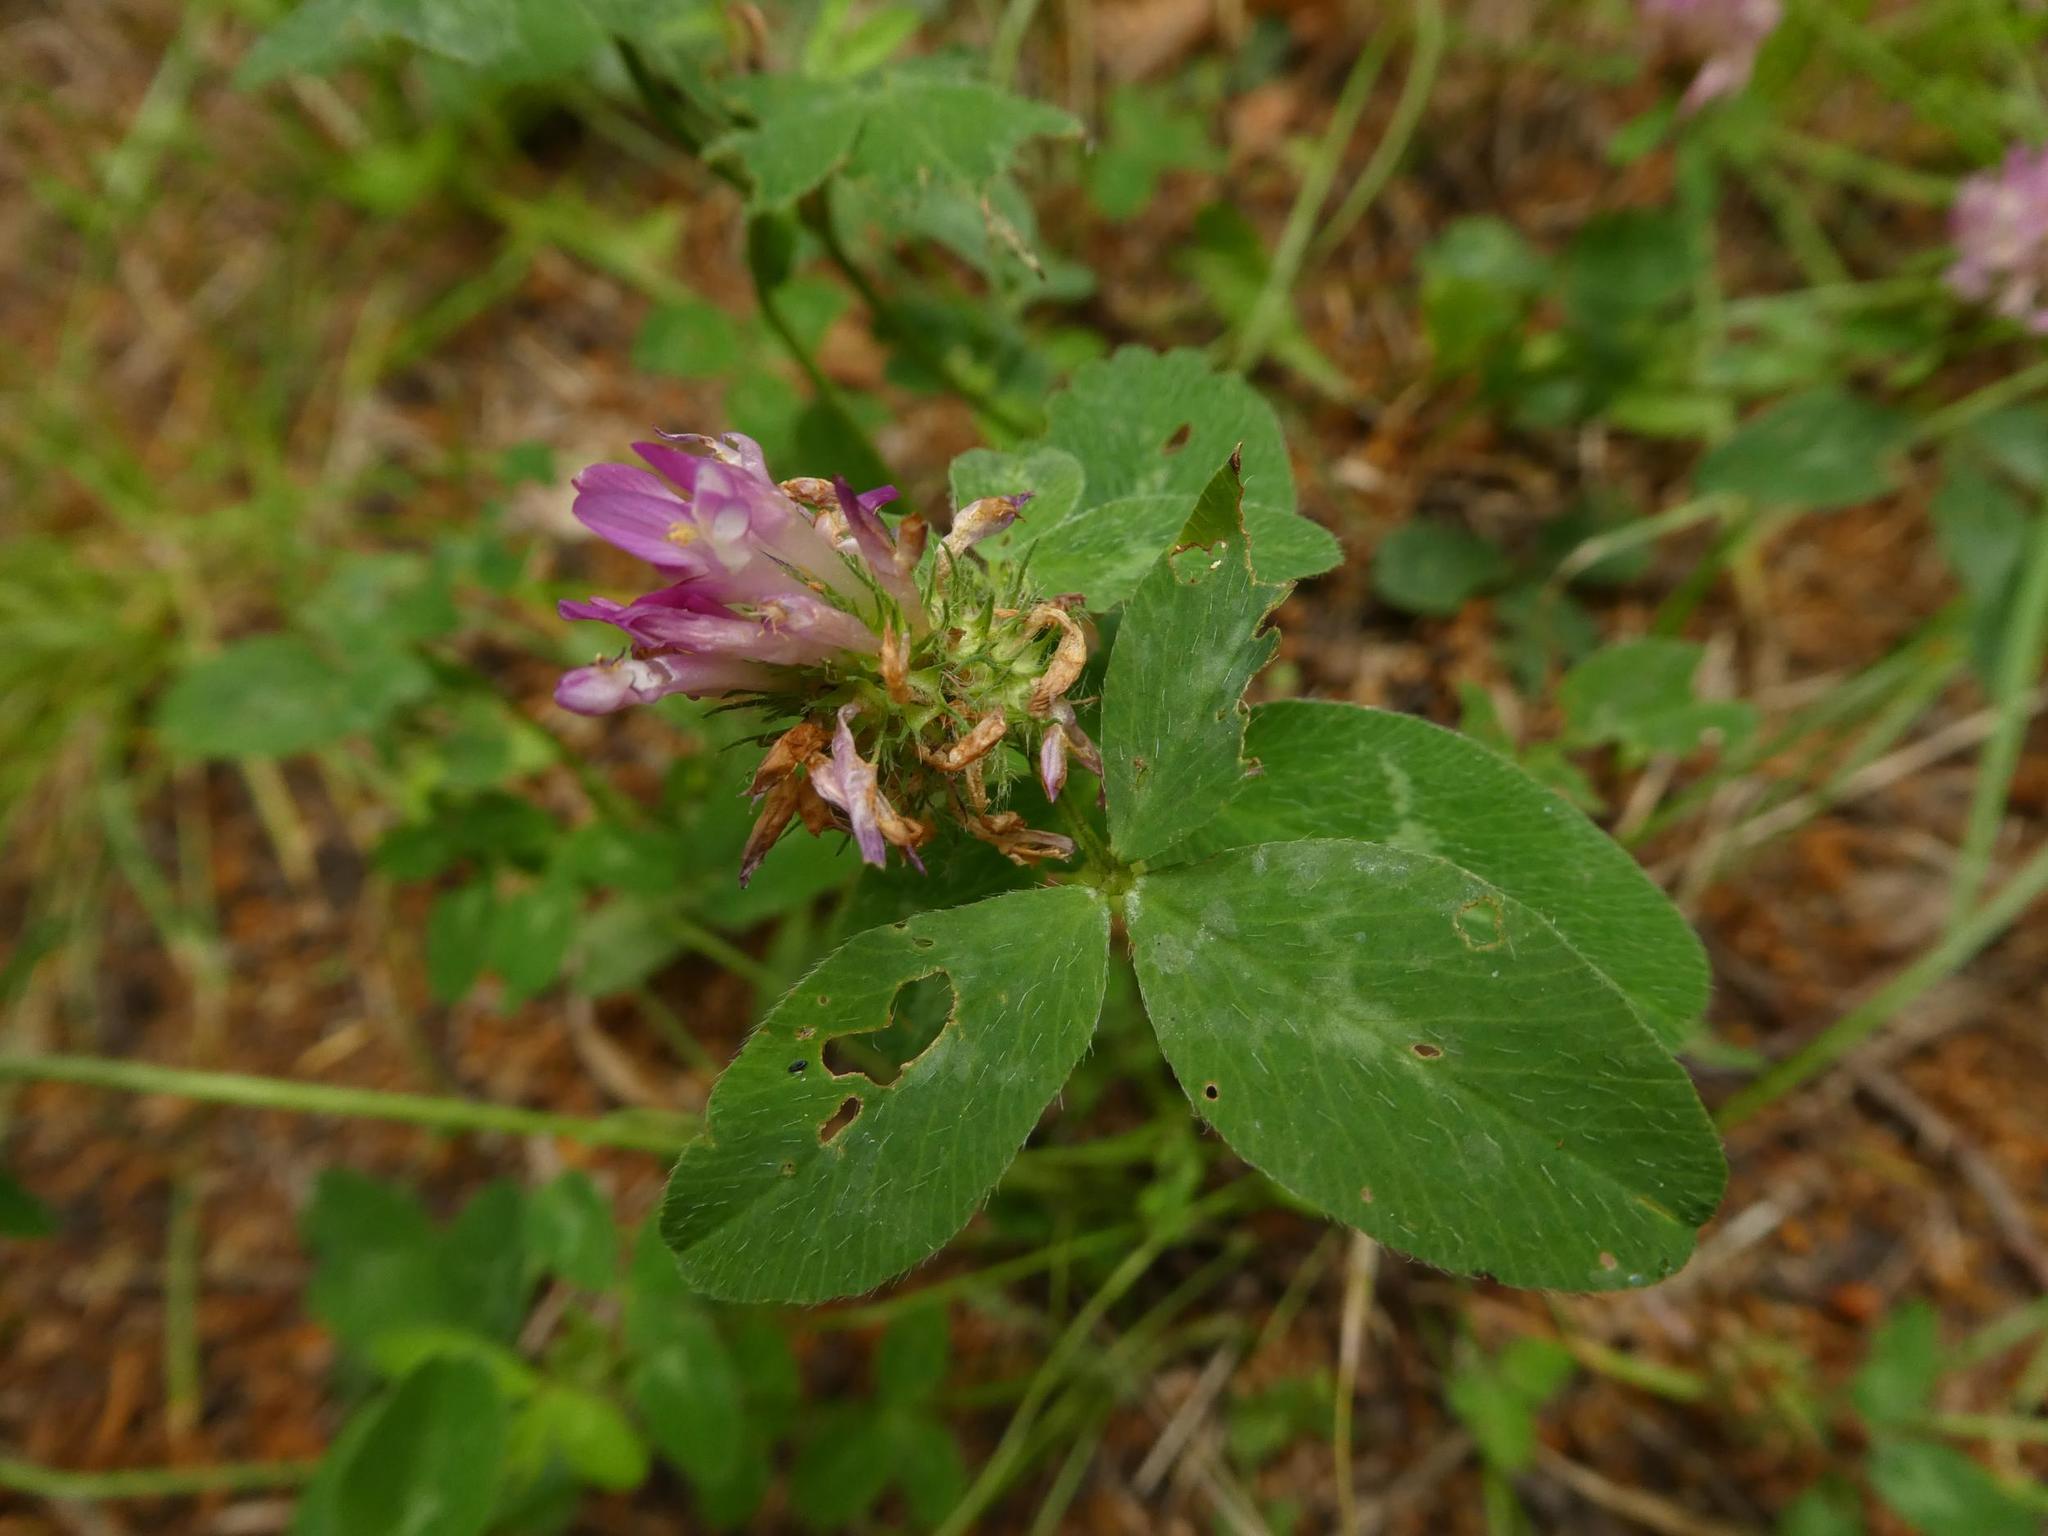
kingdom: Plantae
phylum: Tracheophyta
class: Magnoliopsida
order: Fabales
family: Fabaceae
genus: Trifolium
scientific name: Trifolium pratense
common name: Red clover
